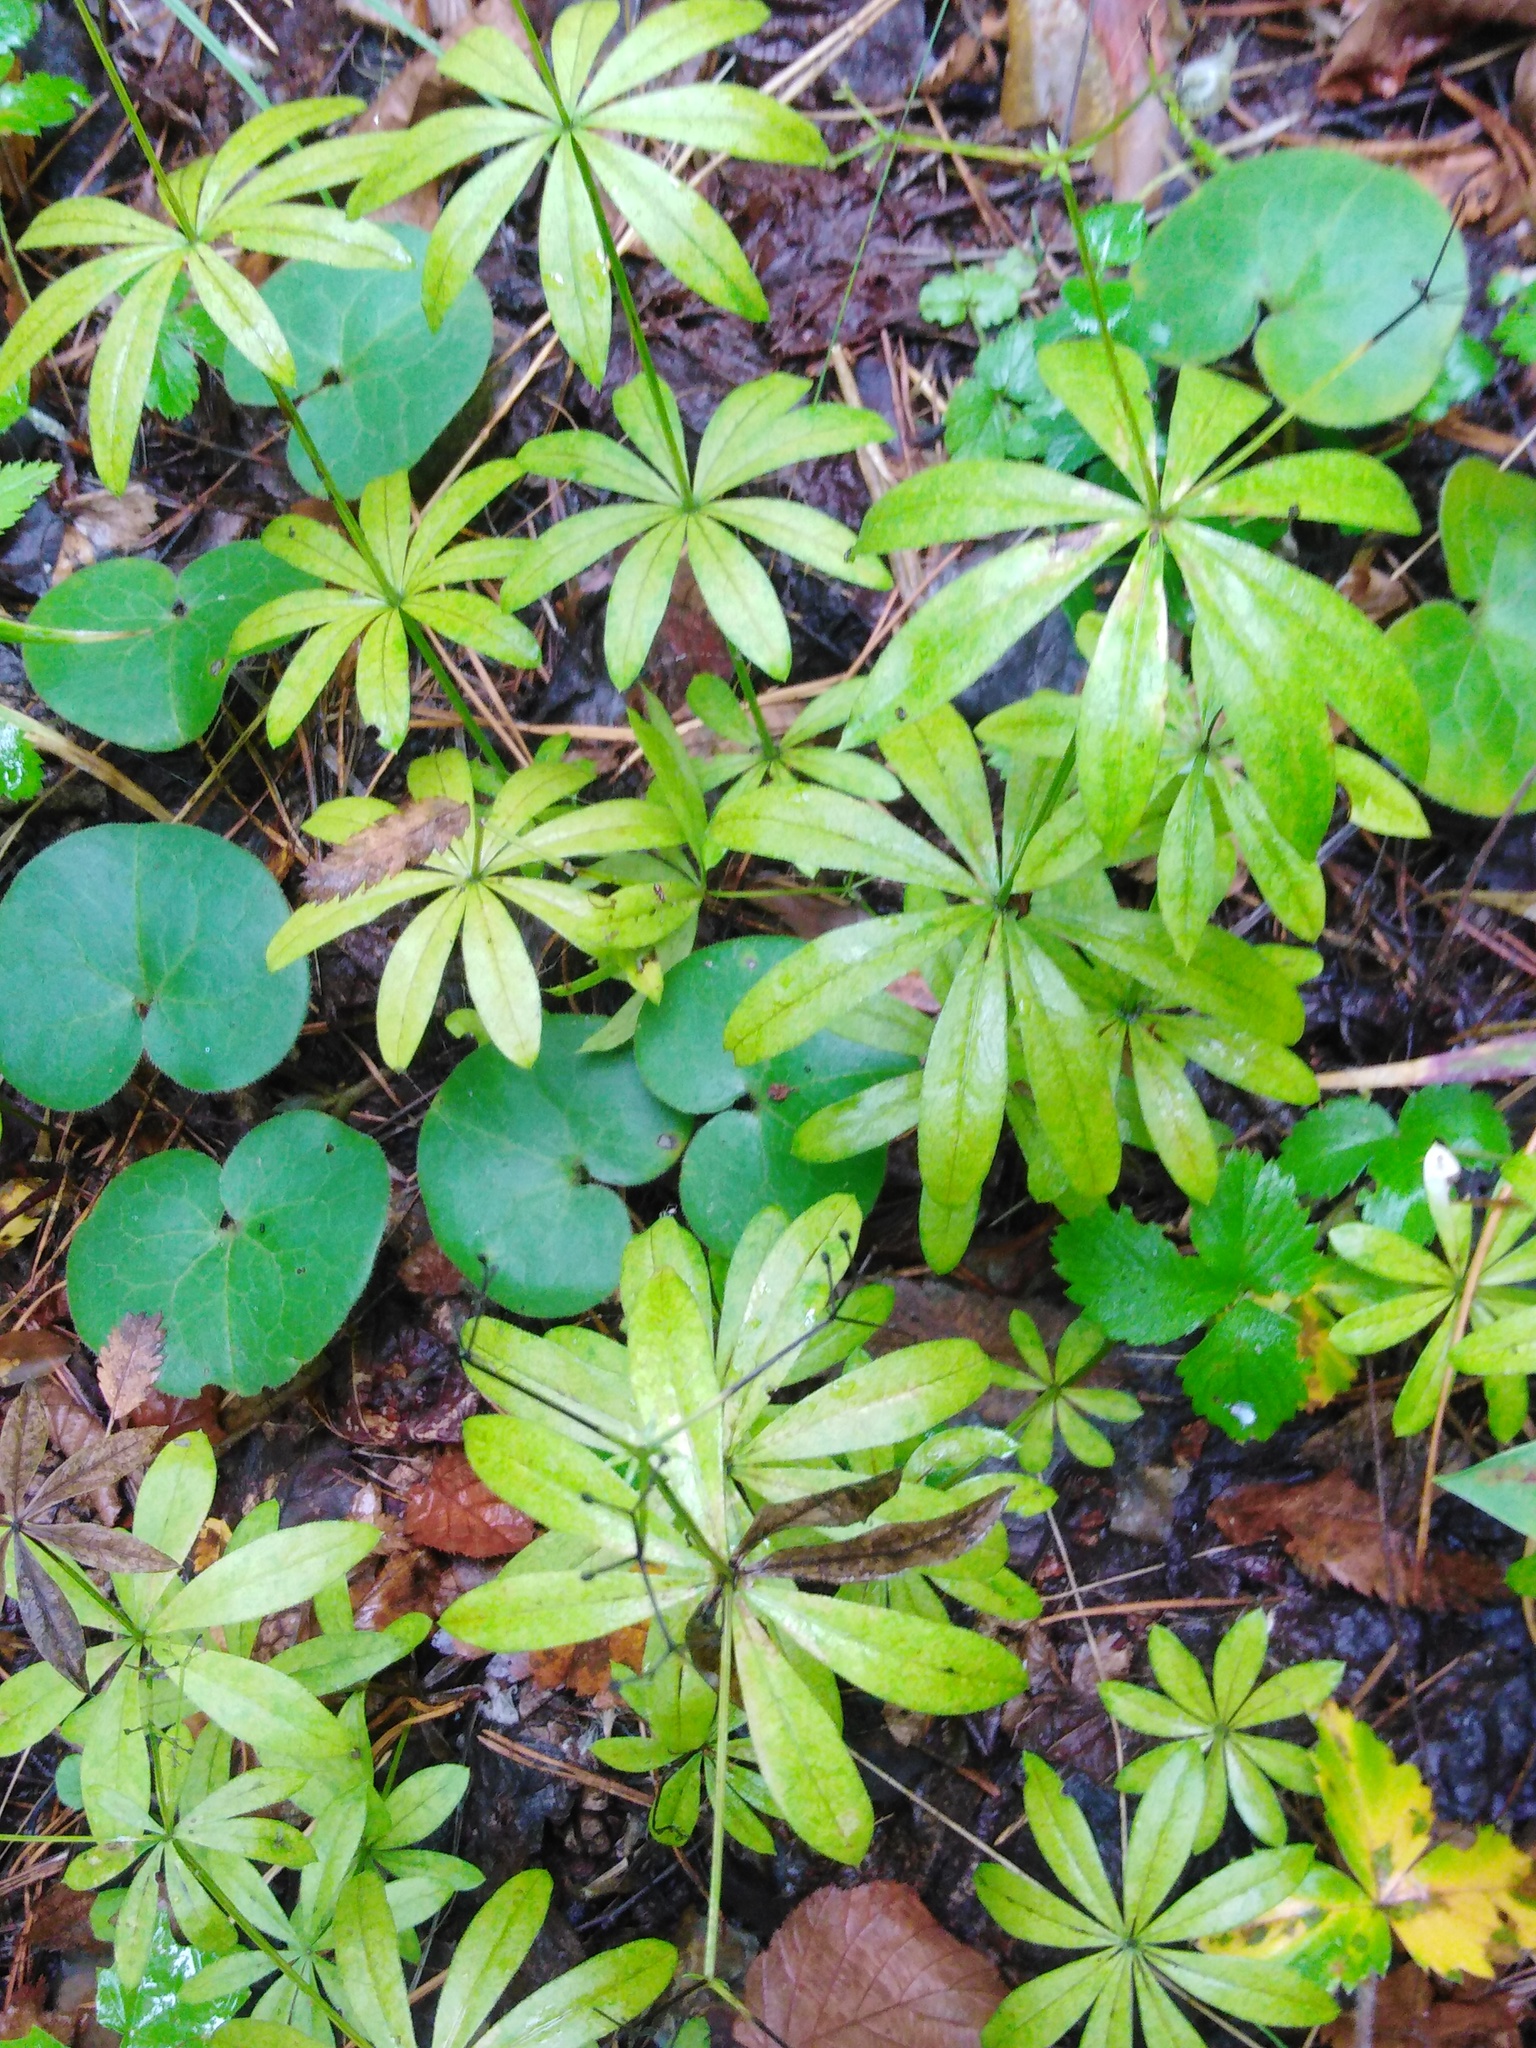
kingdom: Plantae
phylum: Tracheophyta
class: Magnoliopsida
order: Gentianales
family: Rubiaceae
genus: Galium
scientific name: Galium odoratum
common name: Sweet woodruff
